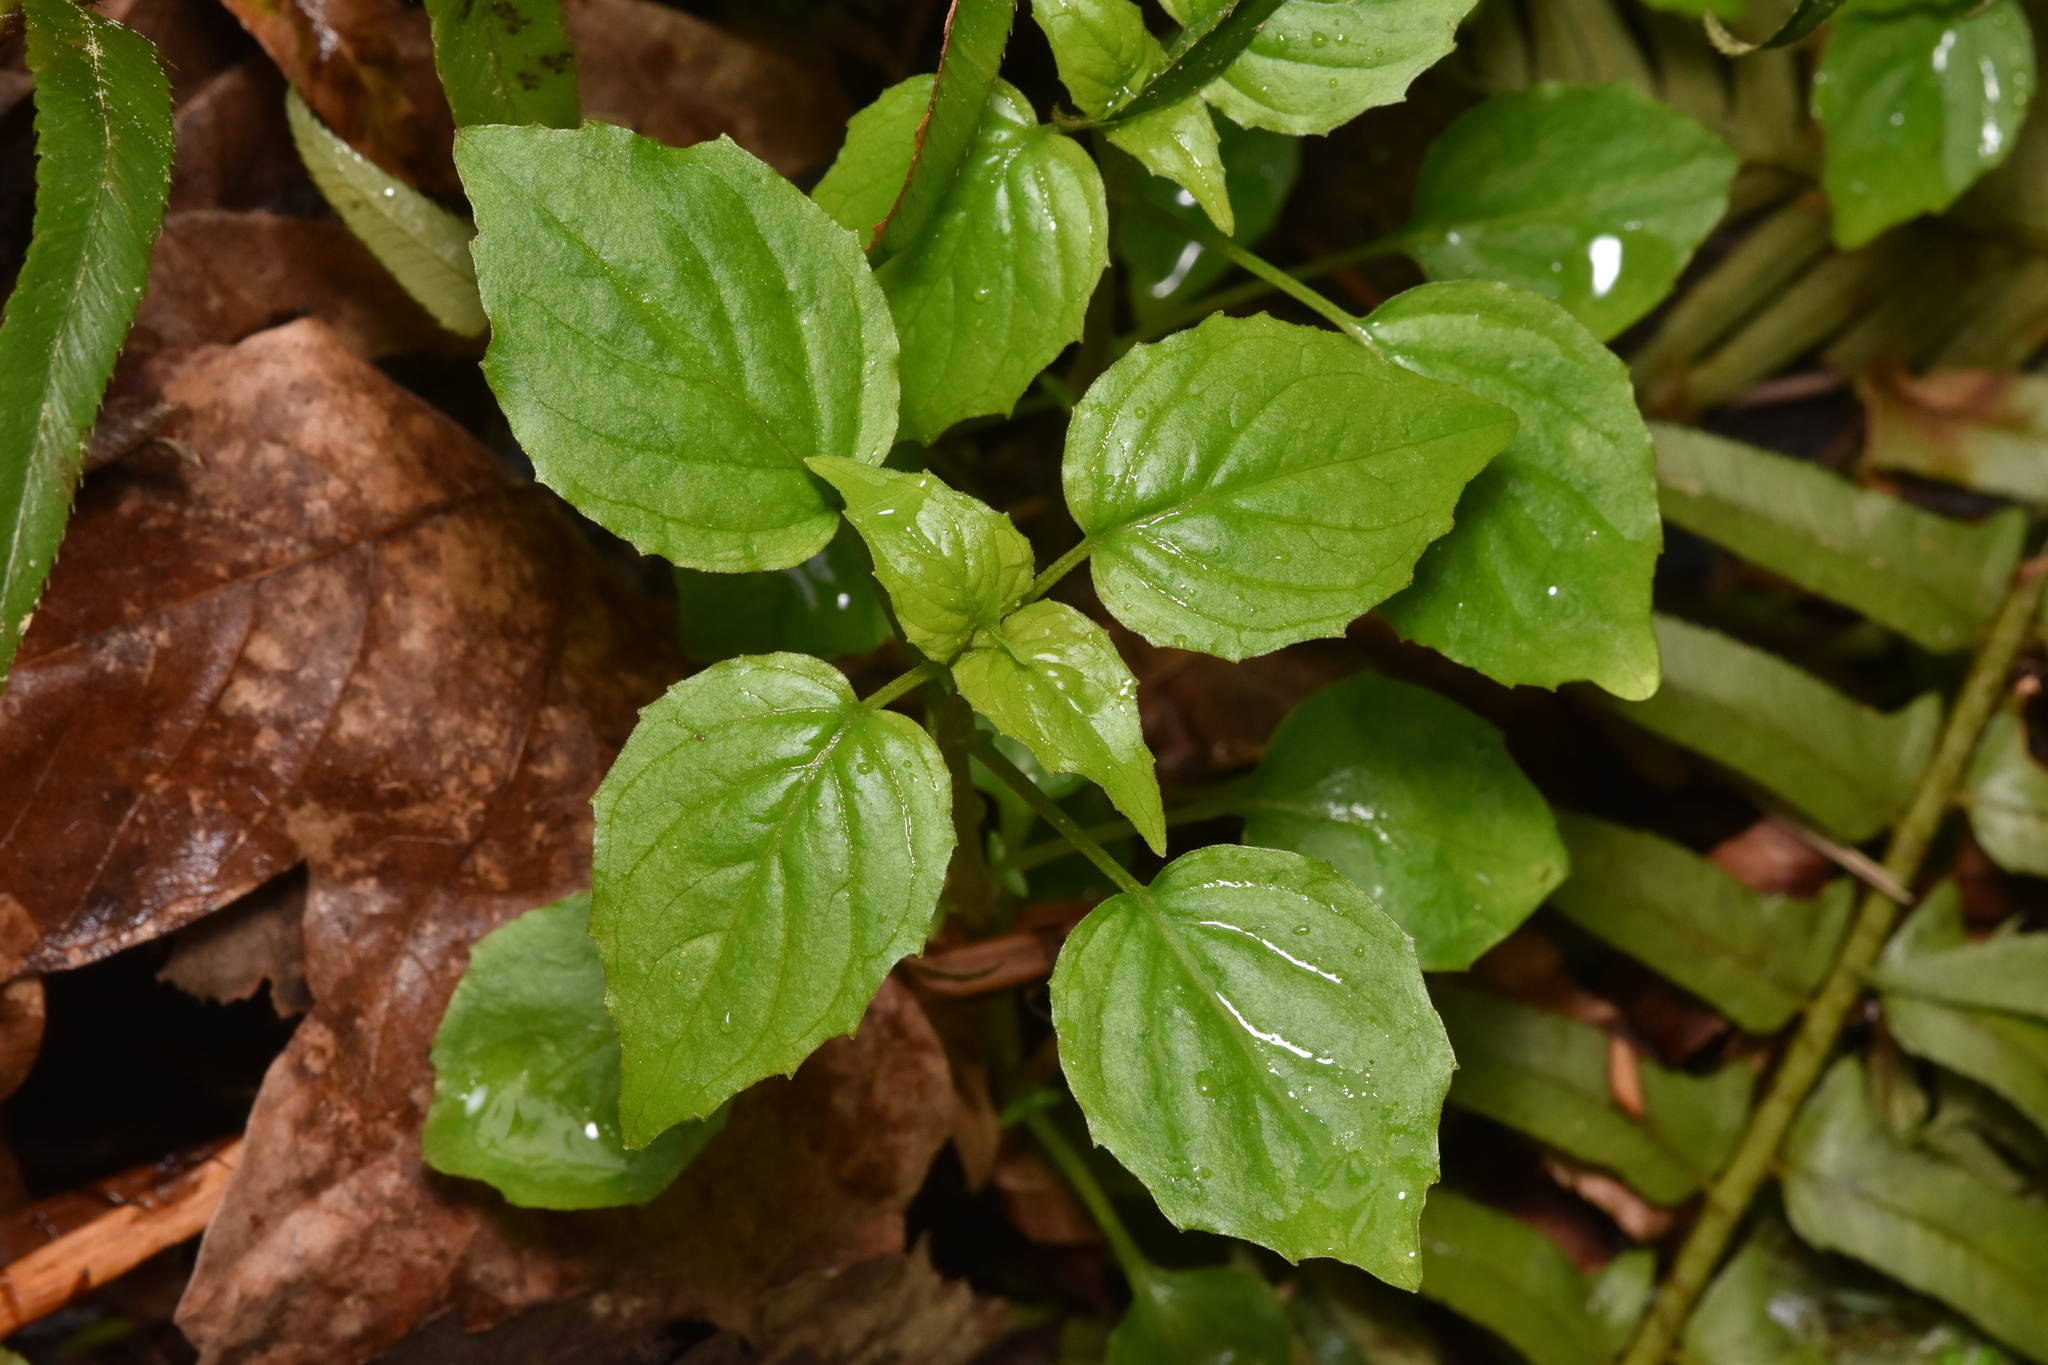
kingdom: Plantae
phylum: Tracheophyta
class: Magnoliopsida
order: Myrtales
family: Onagraceae
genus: Circaea
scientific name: Circaea alpina
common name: Alpine enchanter's-nightshade
